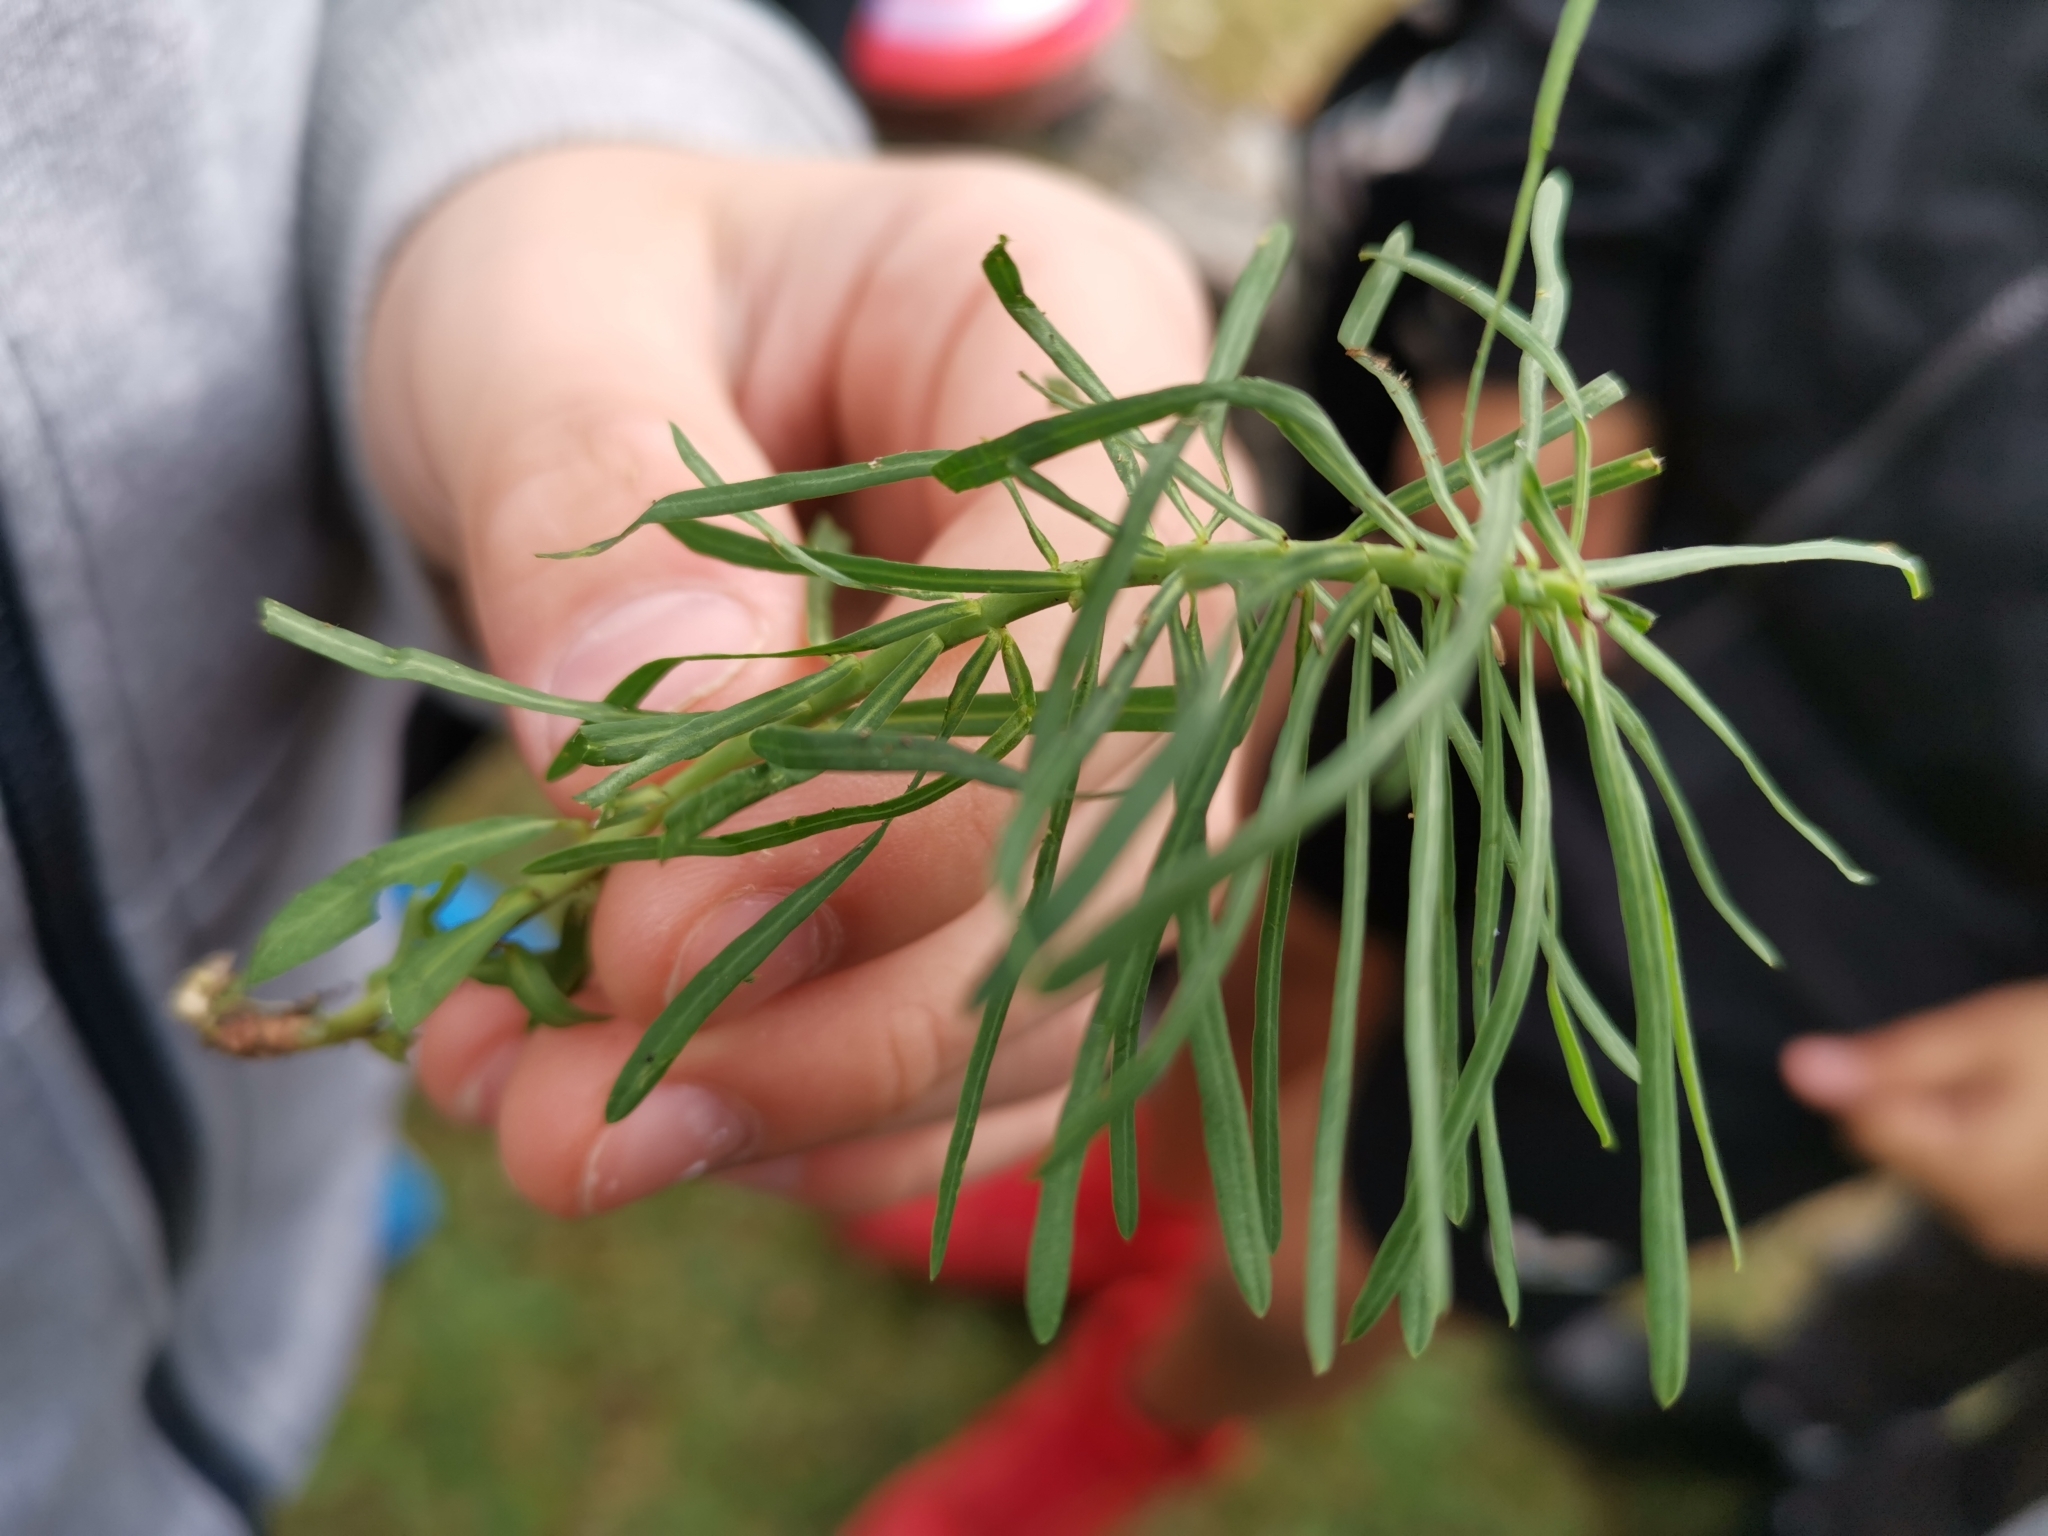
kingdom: Plantae
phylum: Tracheophyta
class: Magnoliopsida
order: Malpighiales
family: Euphorbiaceae
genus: Euphorbia
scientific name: Euphorbia cyparissias
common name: Cypress spurge
